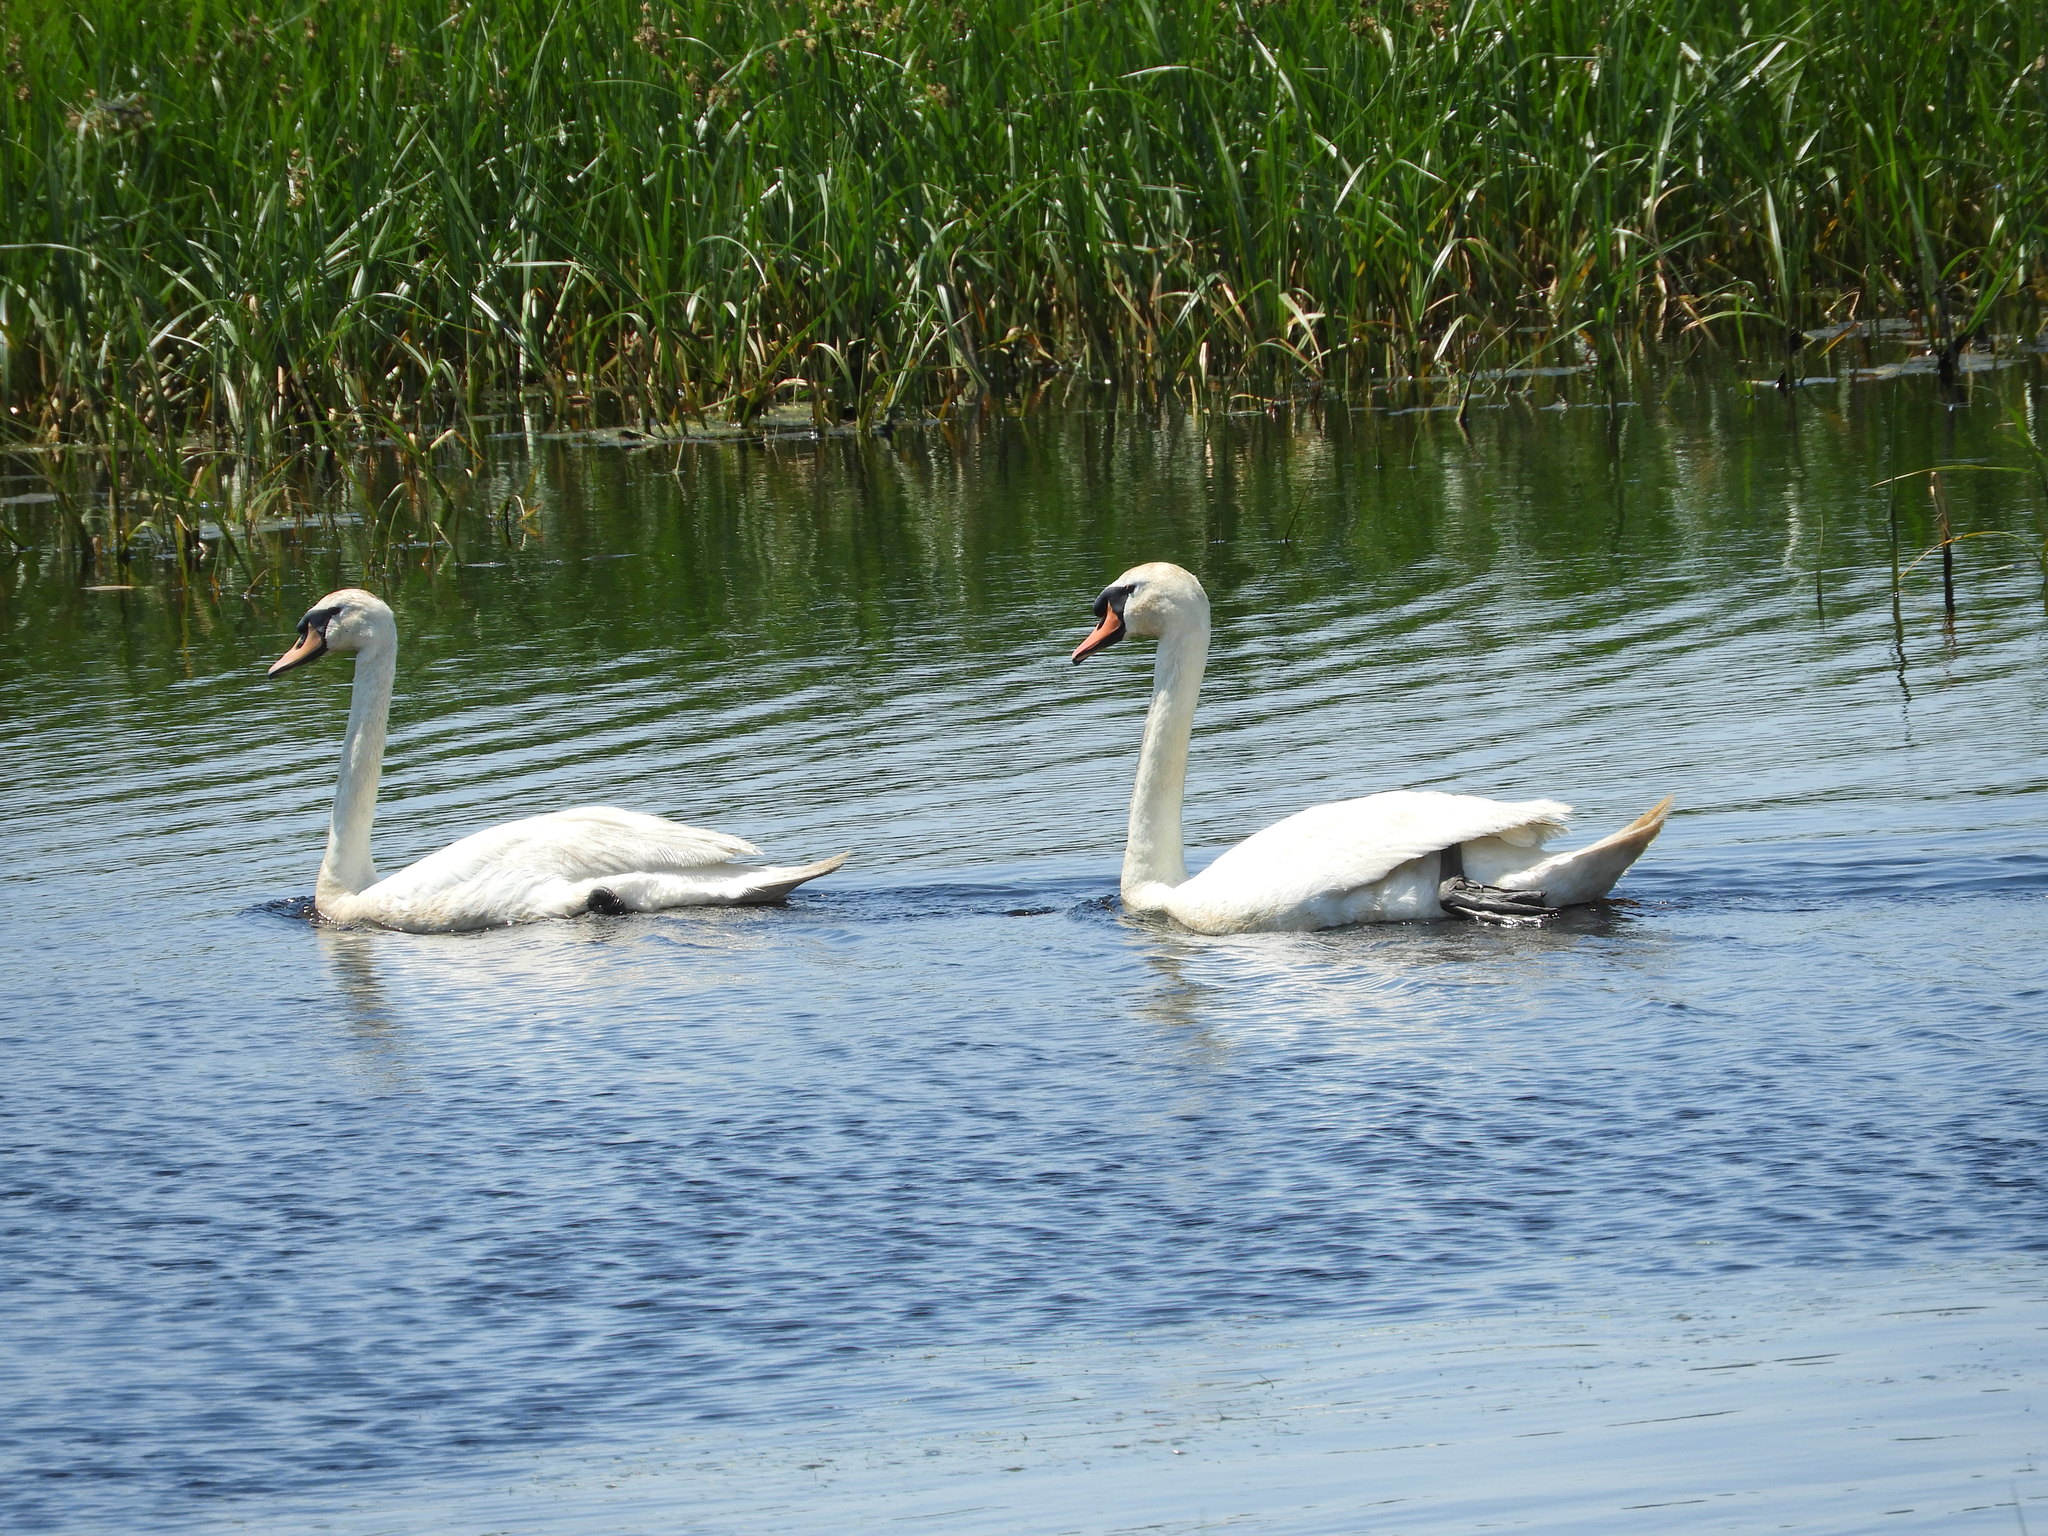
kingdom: Animalia
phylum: Chordata
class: Aves
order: Anseriformes
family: Anatidae
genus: Cygnus
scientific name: Cygnus olor
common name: Mute swan
